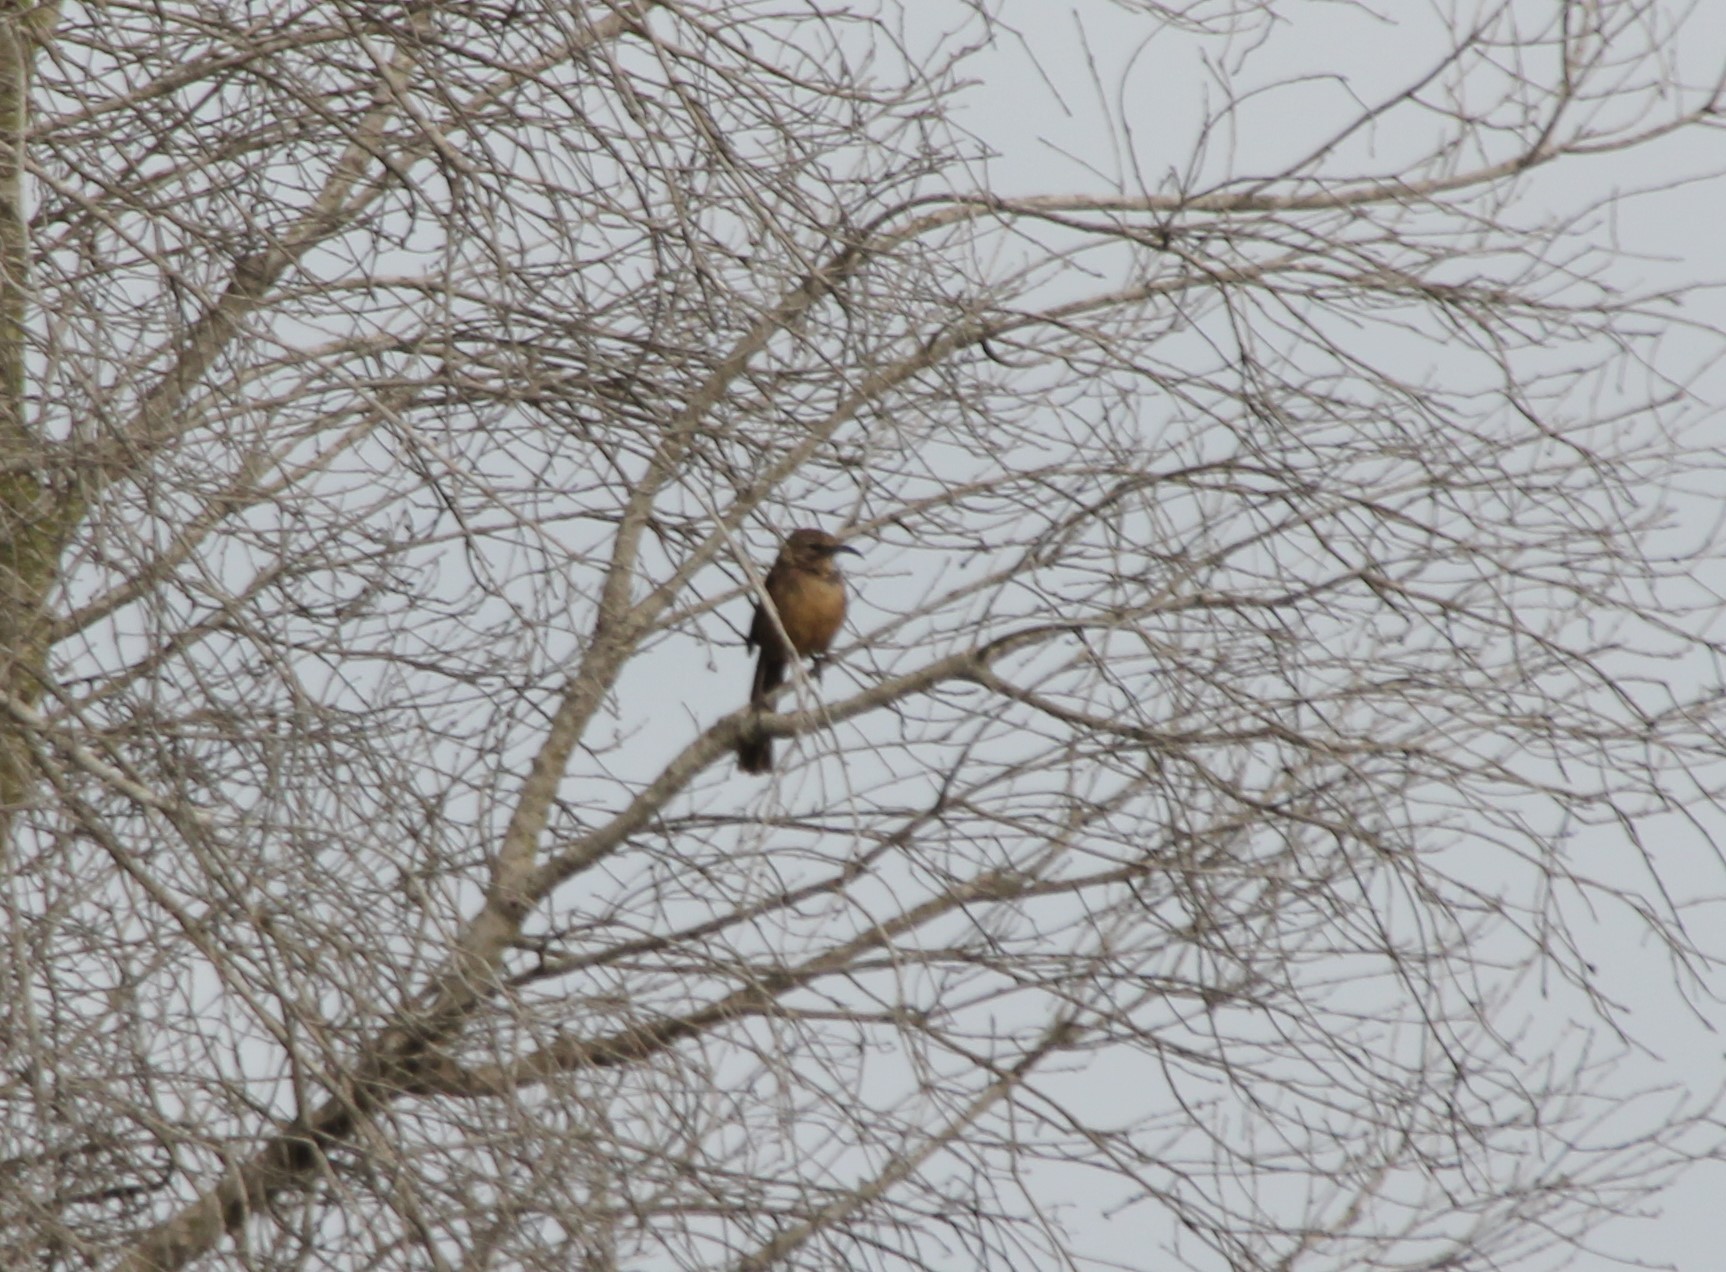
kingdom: Animalia
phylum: Chordata
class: Aves
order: Passeriformes
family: Mimidae
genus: Toxostoma
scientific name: Toxostoma redivivum
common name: California thrasher
